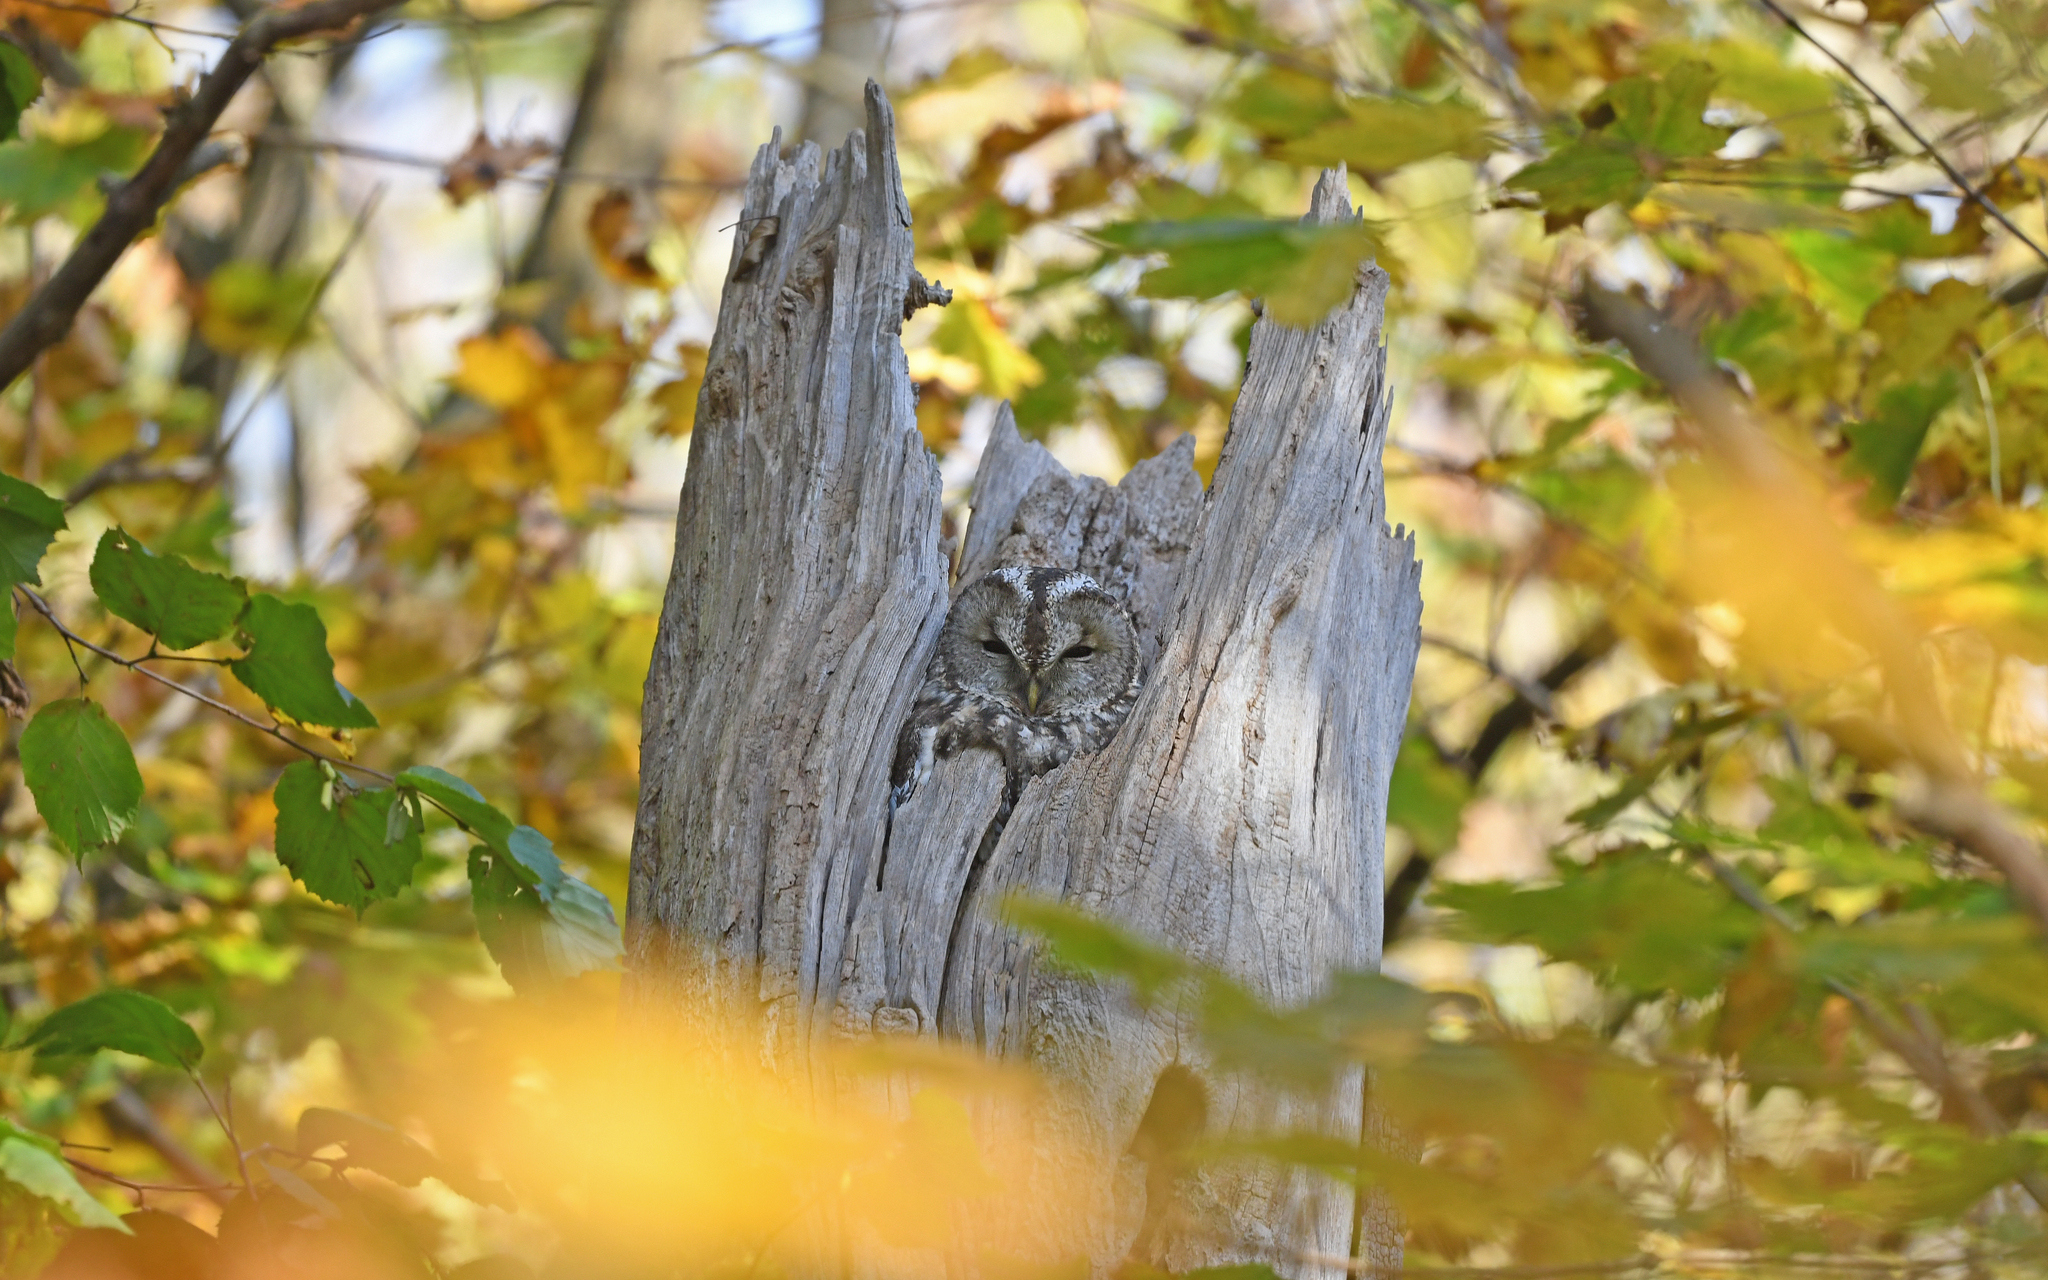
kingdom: Animalia
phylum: Chordata
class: Aves
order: Strigiformes
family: Strigidae
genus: Strix
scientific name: Strix aluco
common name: Tawny owl
